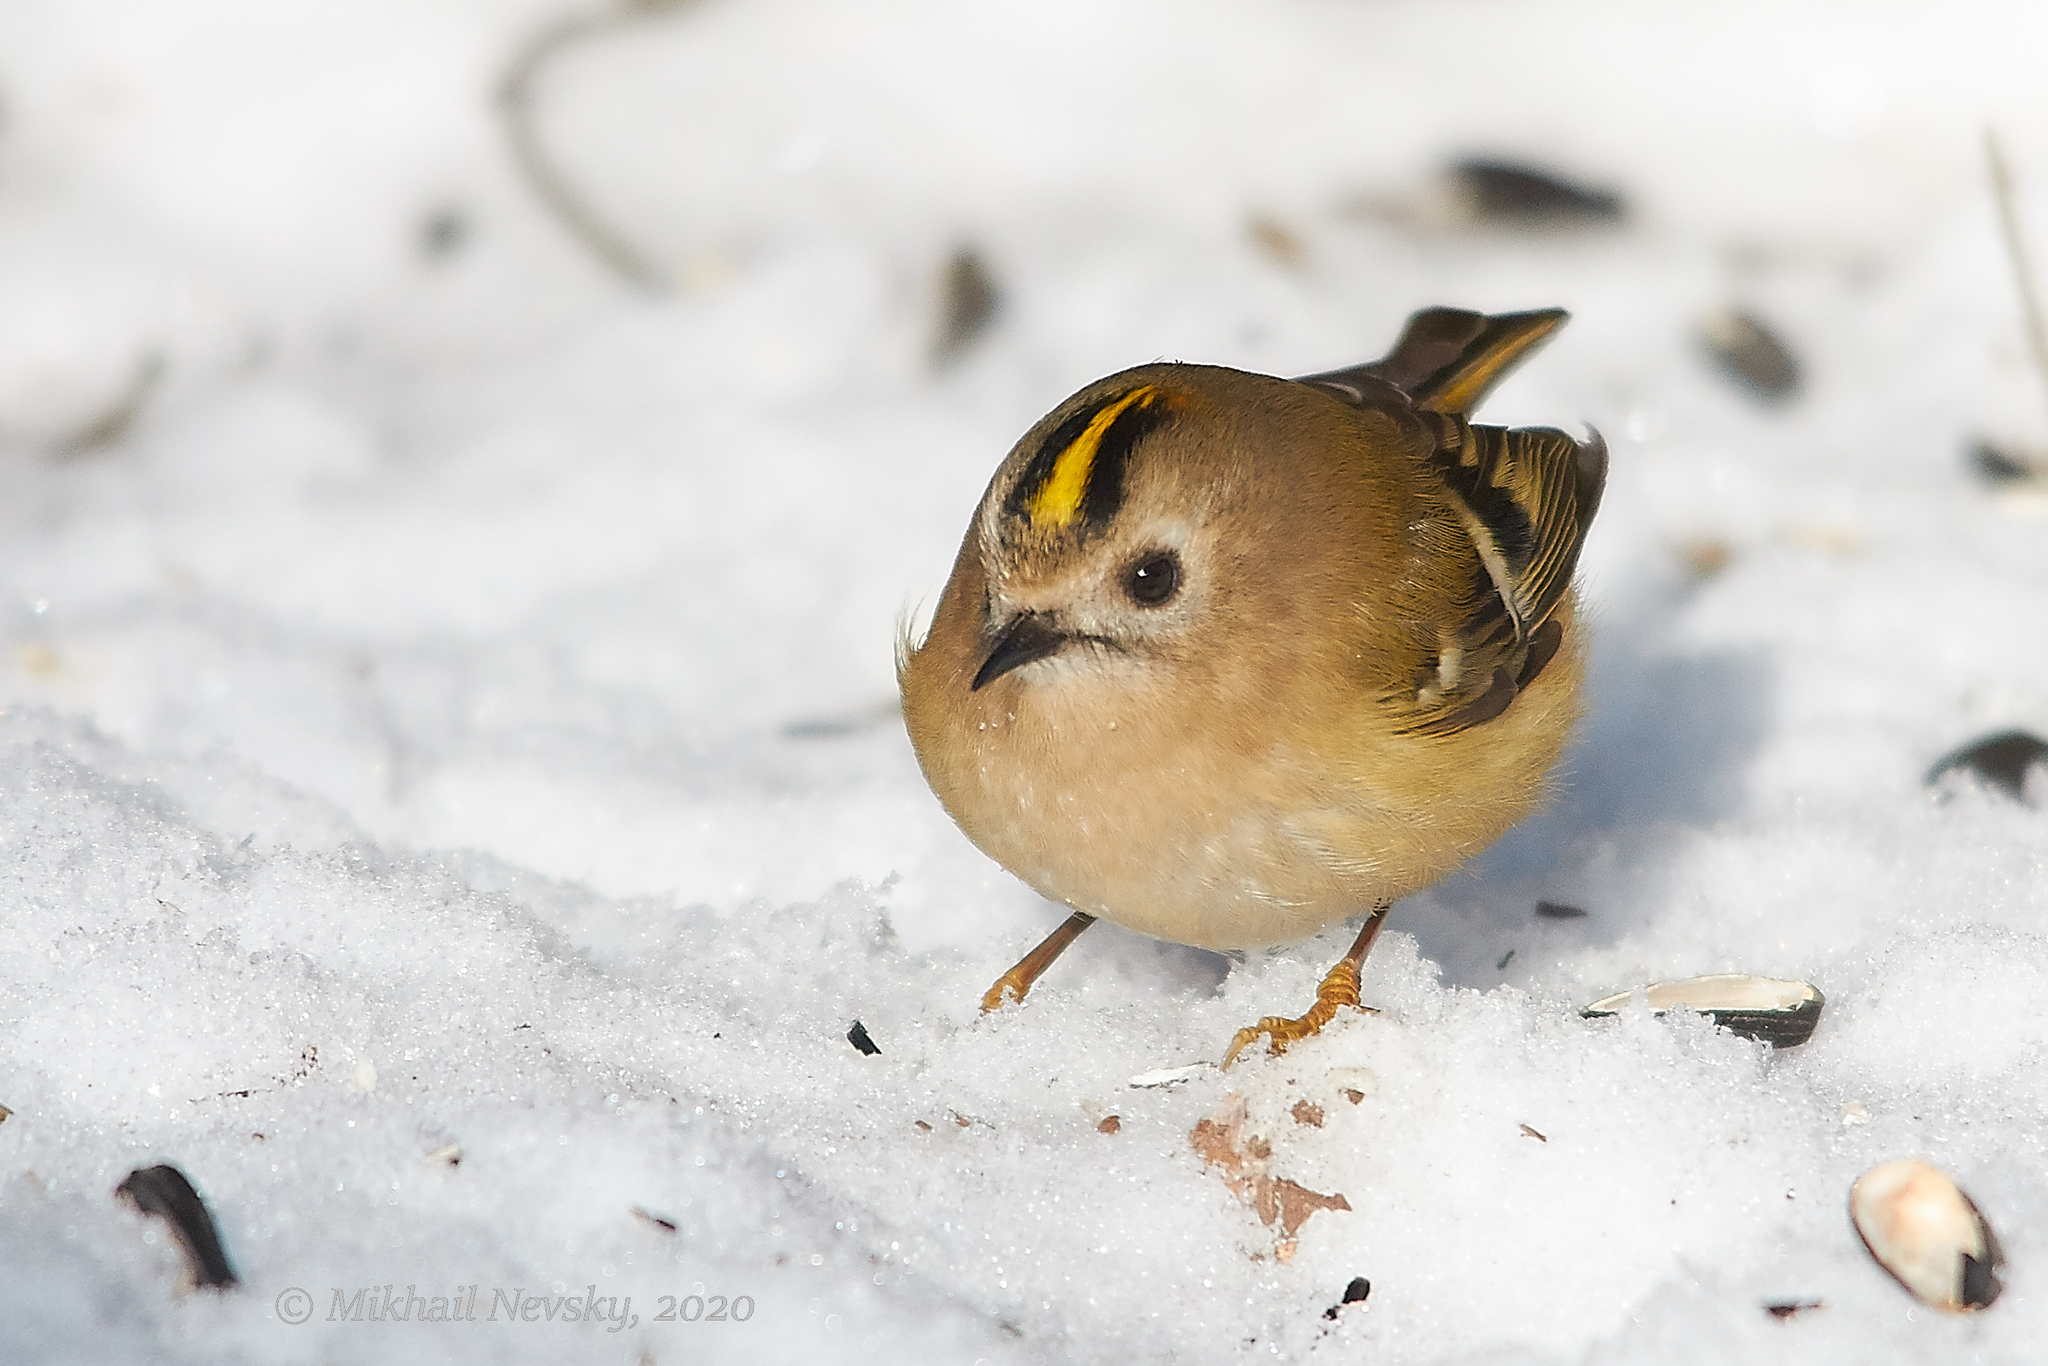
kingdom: Animalia
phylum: Chordata
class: Aves
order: Passeriformes
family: Regulidae
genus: Regulus
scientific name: Regulus regulus
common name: Goldcrest
